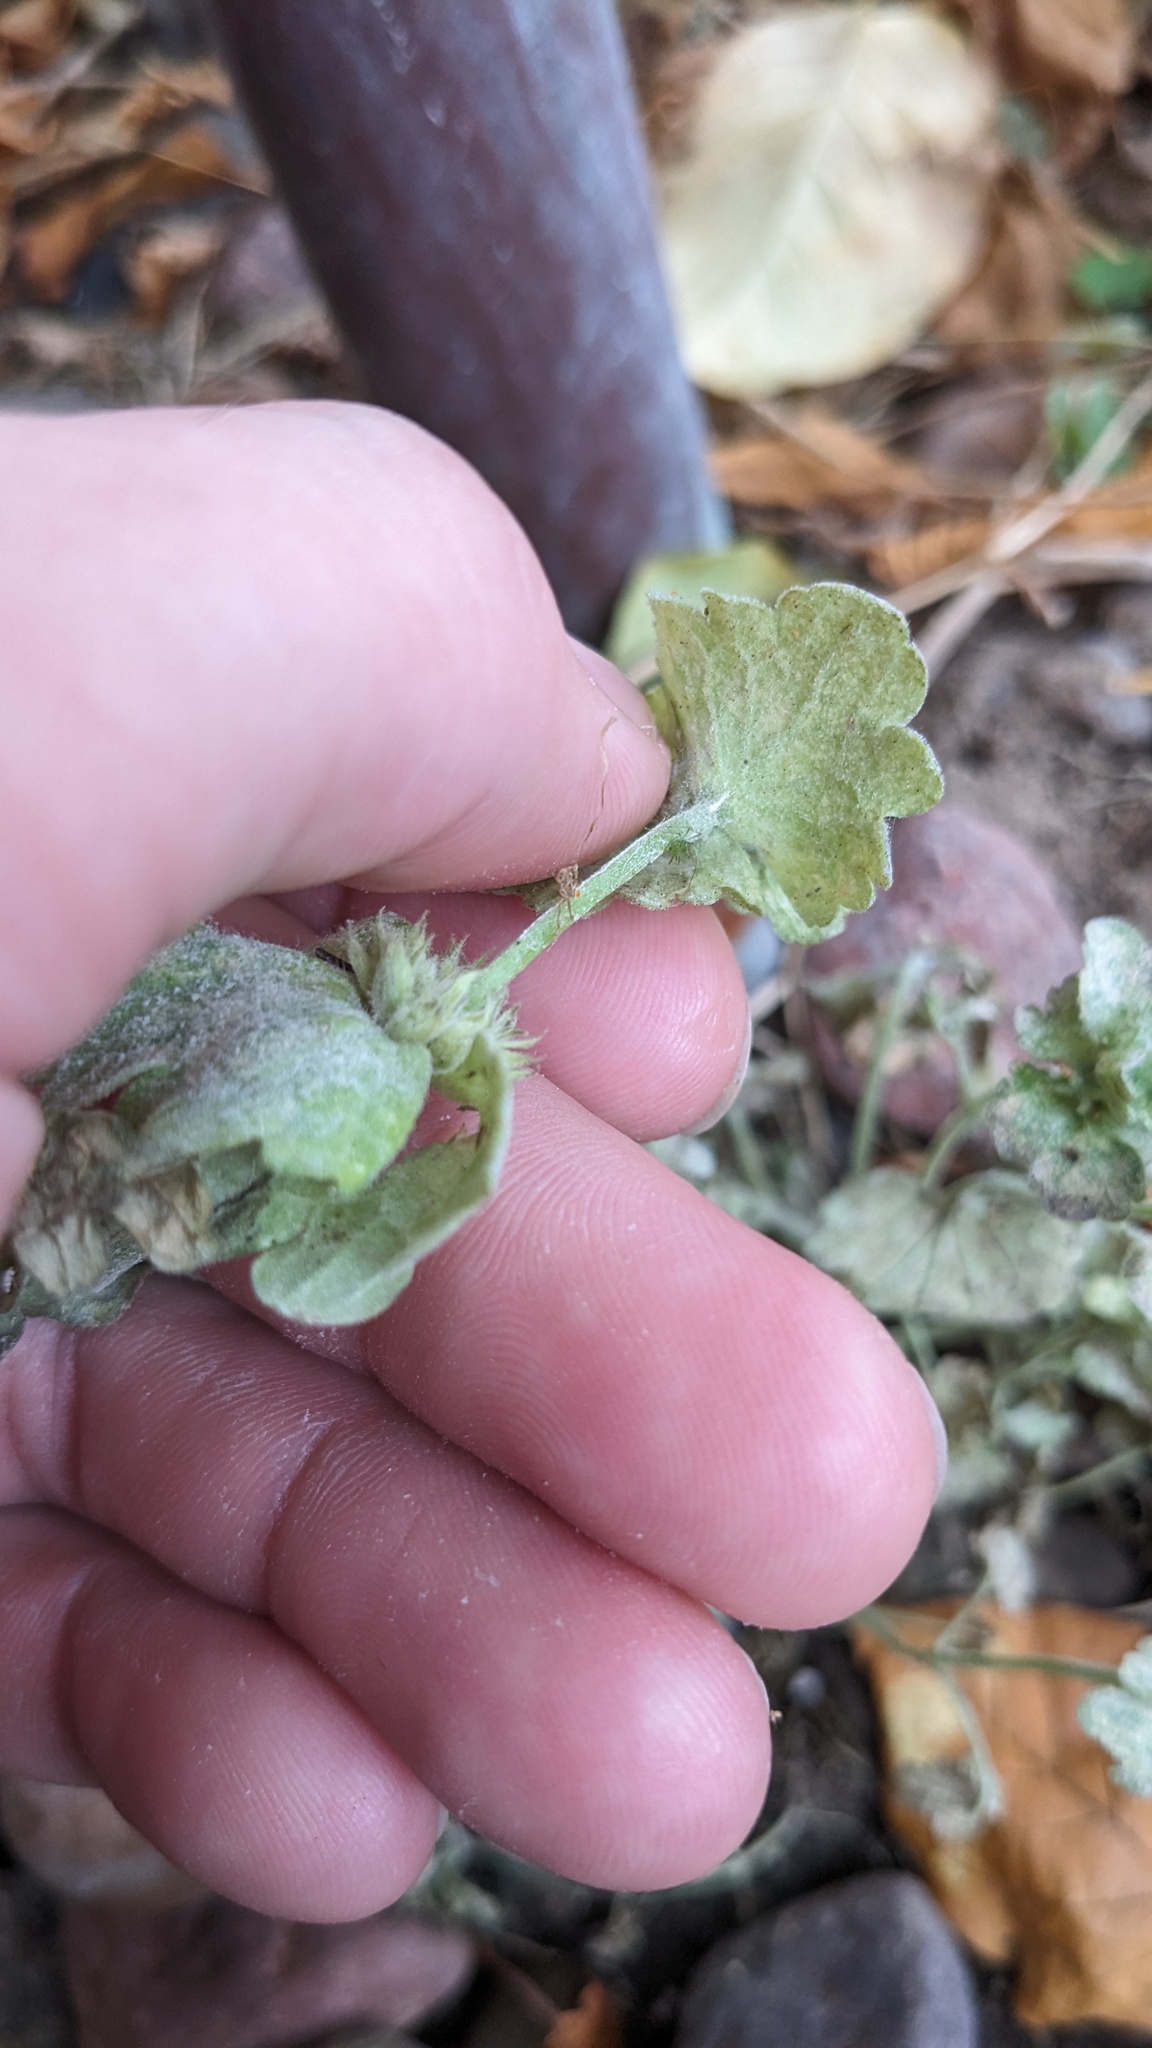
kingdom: Fungi
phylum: Ascomycota
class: Leotiomycetes
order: Helotiales
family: Erysiphaceae
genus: Neoerysiphe
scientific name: Neoerysiphe galeopsidis
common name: Mint mildew
